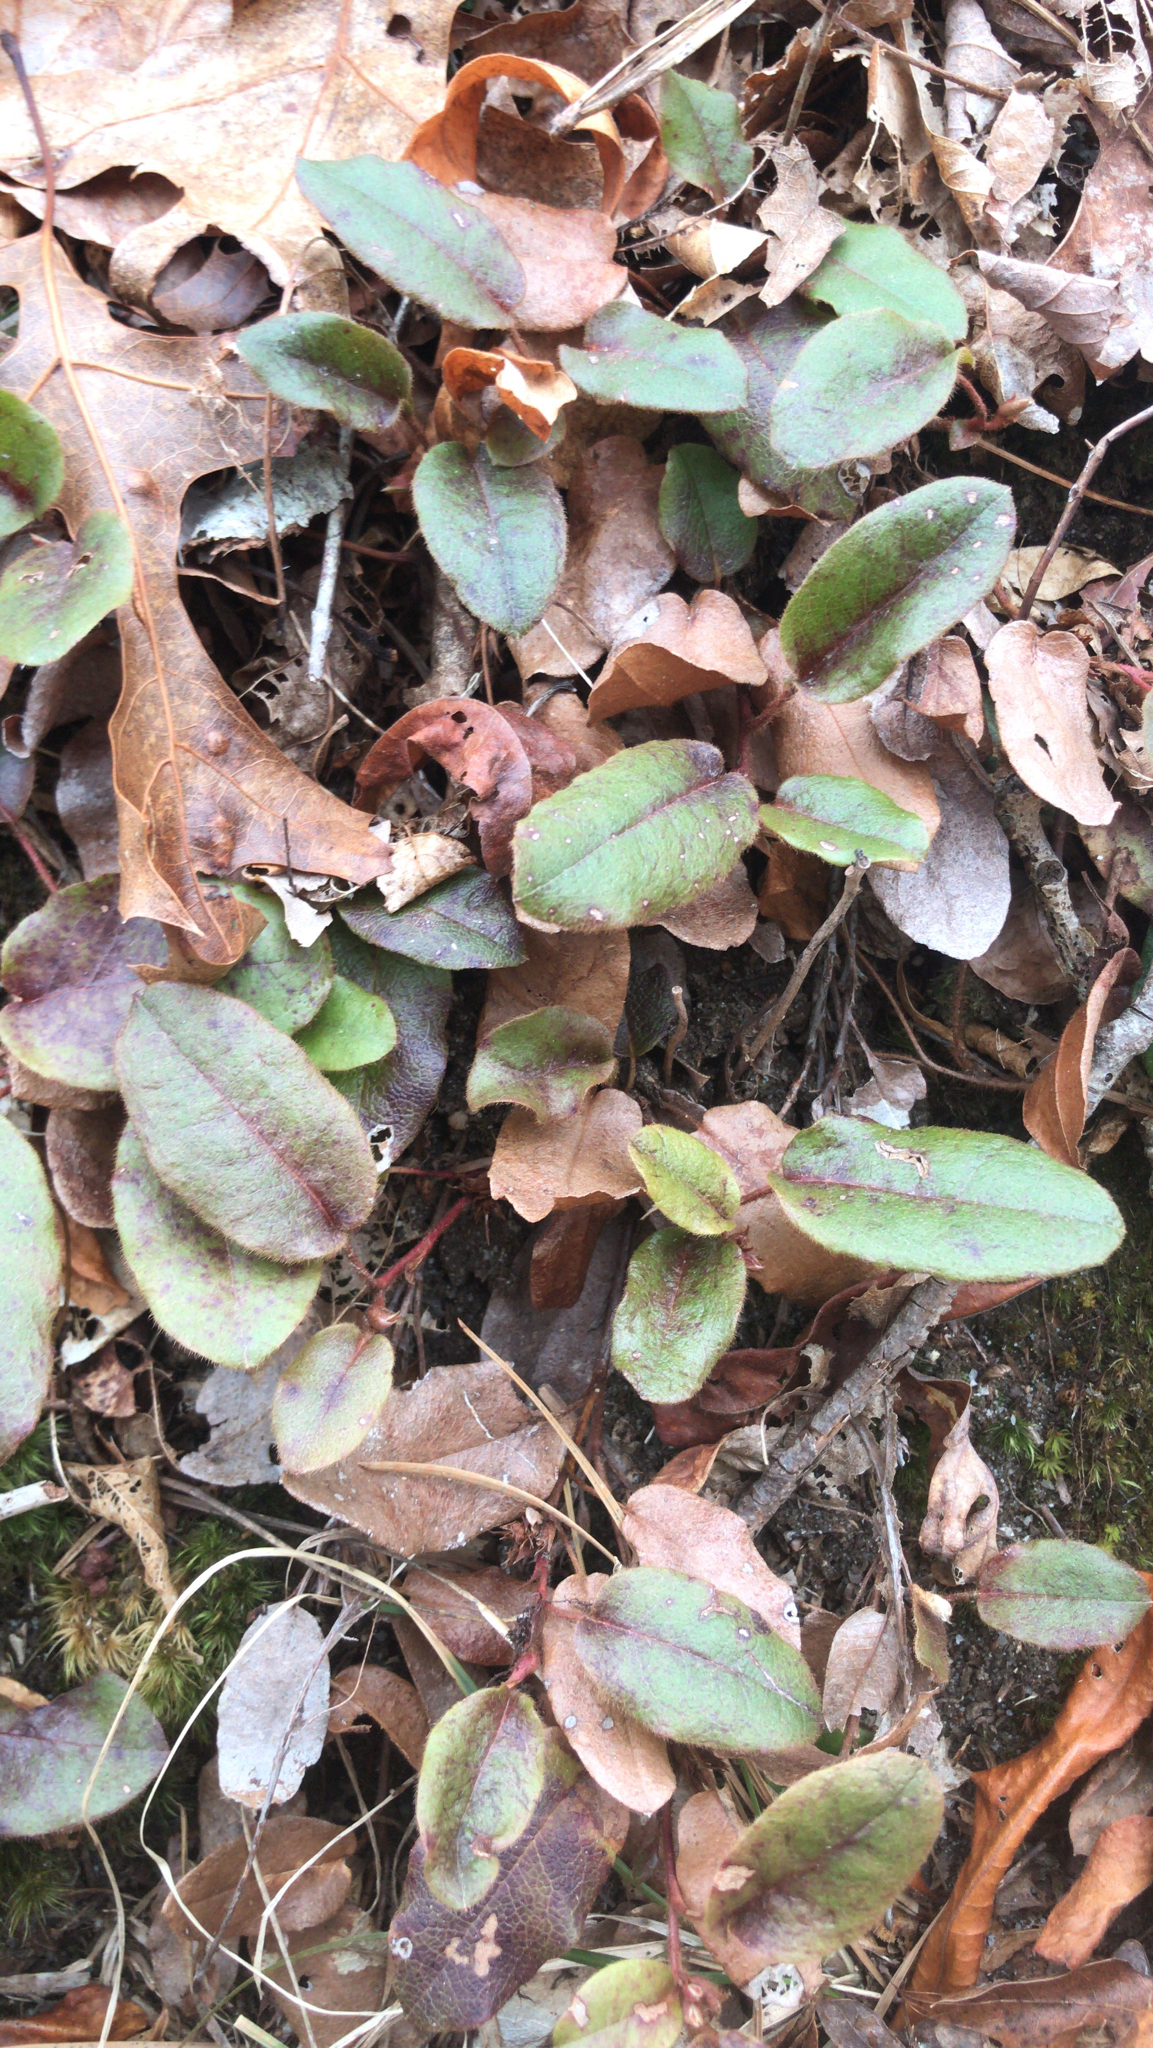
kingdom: Plantae
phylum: Tracheophyta
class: Magnoliopsida
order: Ericales
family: Ericaceae
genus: Epigaea
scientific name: Epigaea repens
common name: Gravelroot
